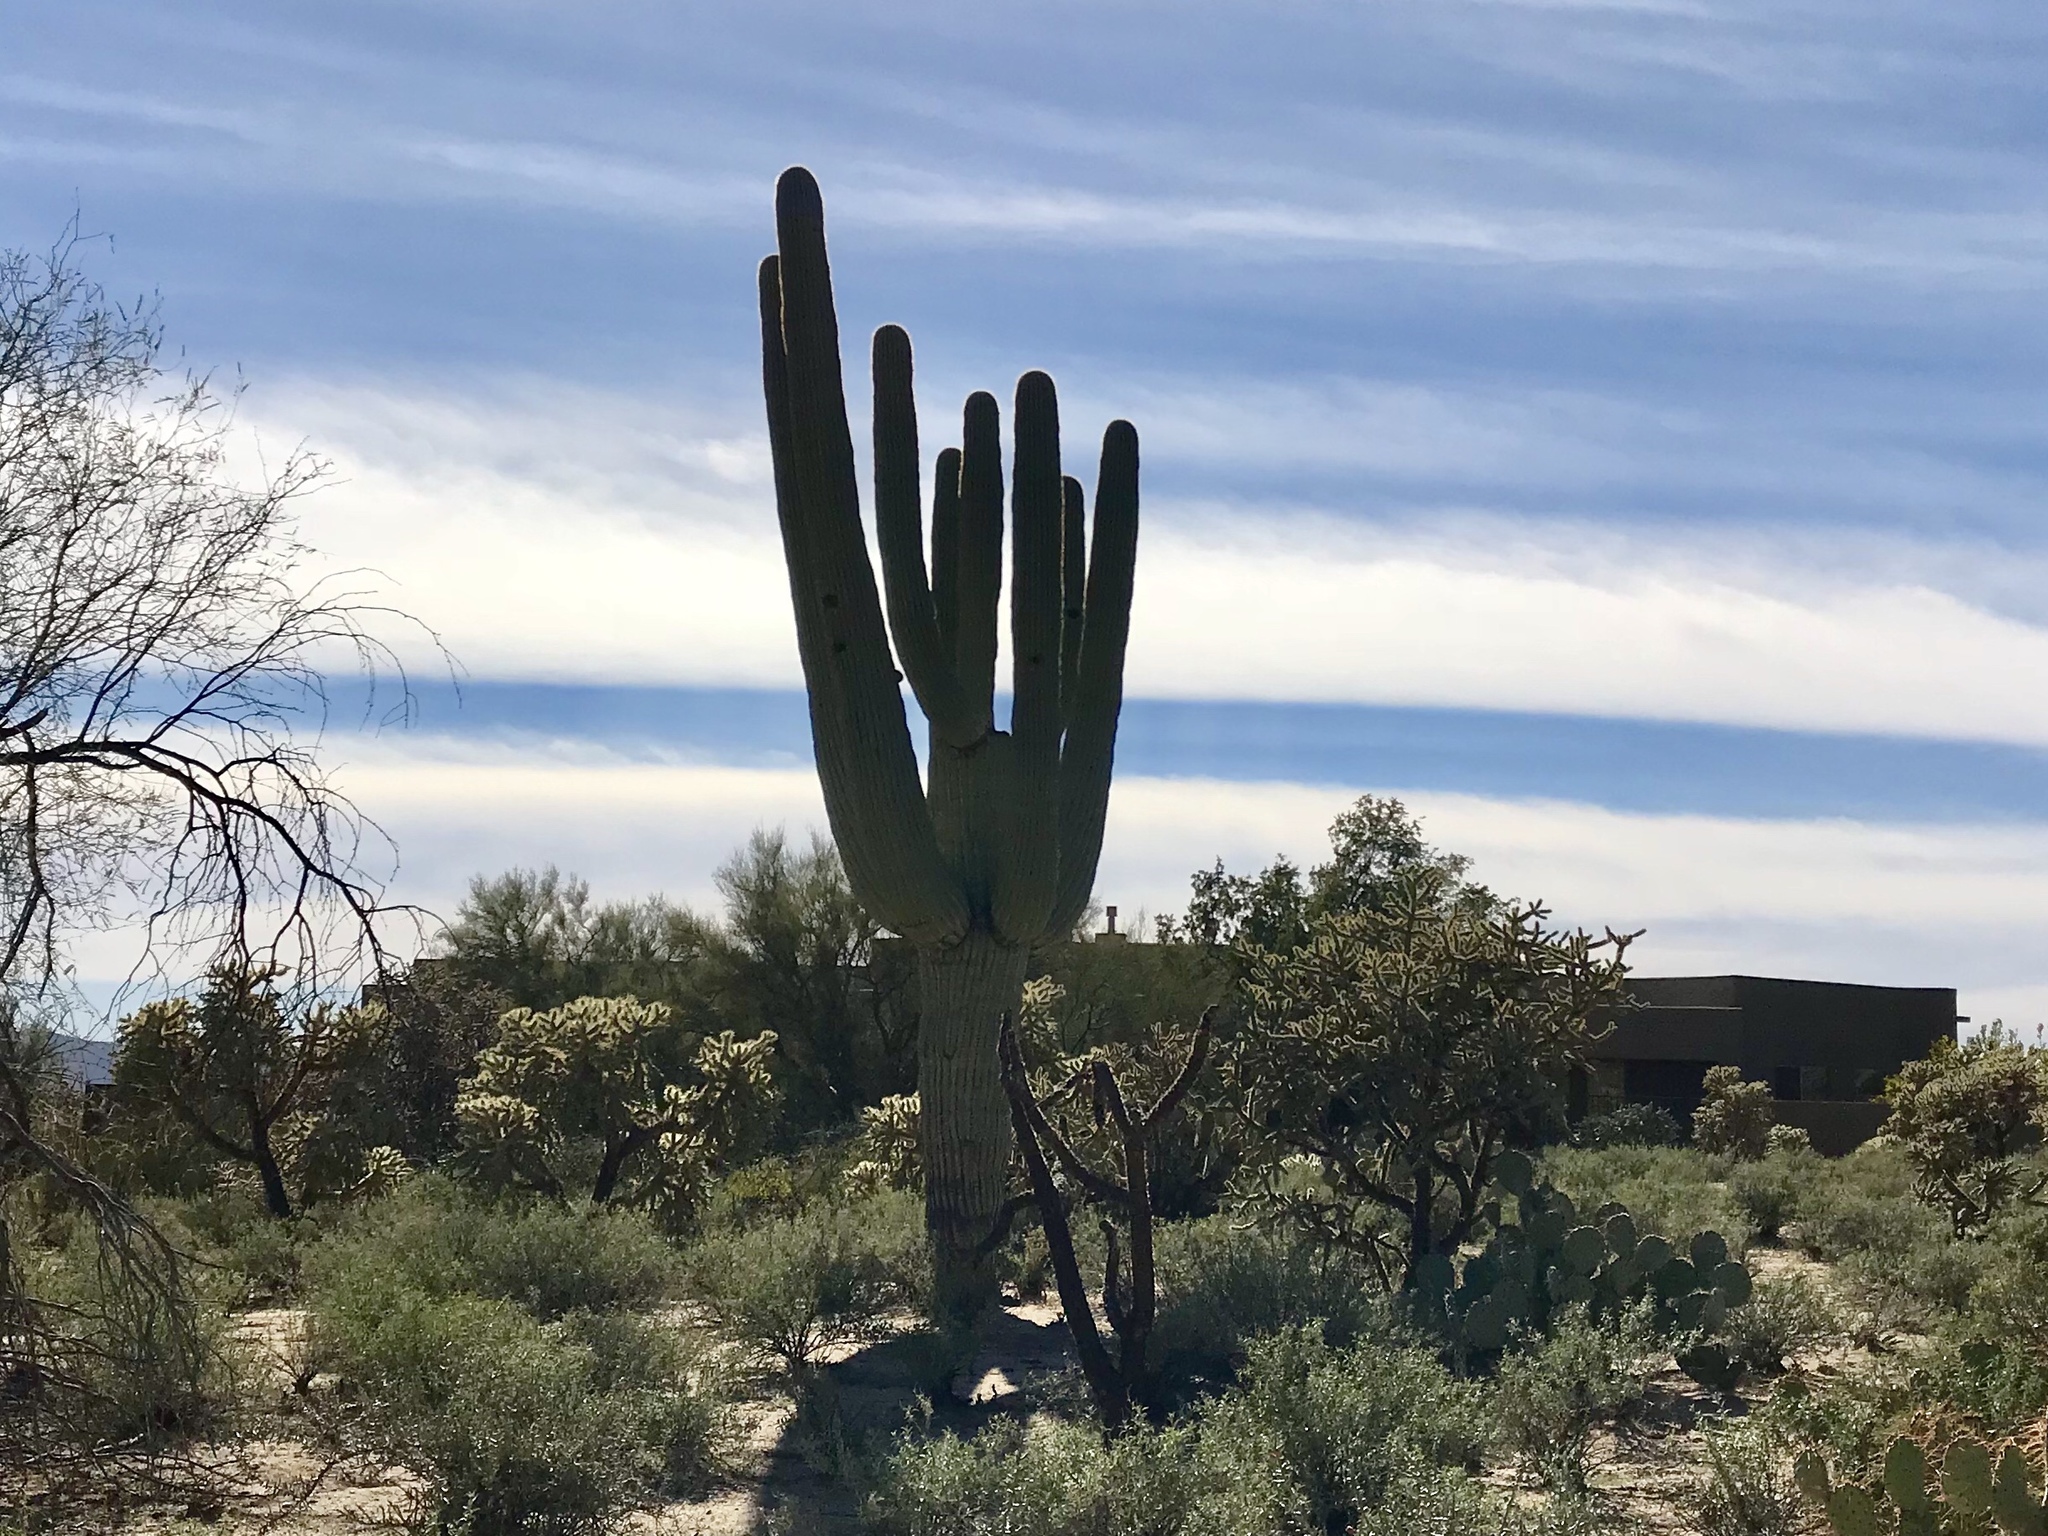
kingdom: Plantae
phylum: Tracheophyta
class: Magnoliopsida
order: Caryophyllales
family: Cactaceae
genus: Carnegiea
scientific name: Carnegiea gigantea
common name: Saguaro
